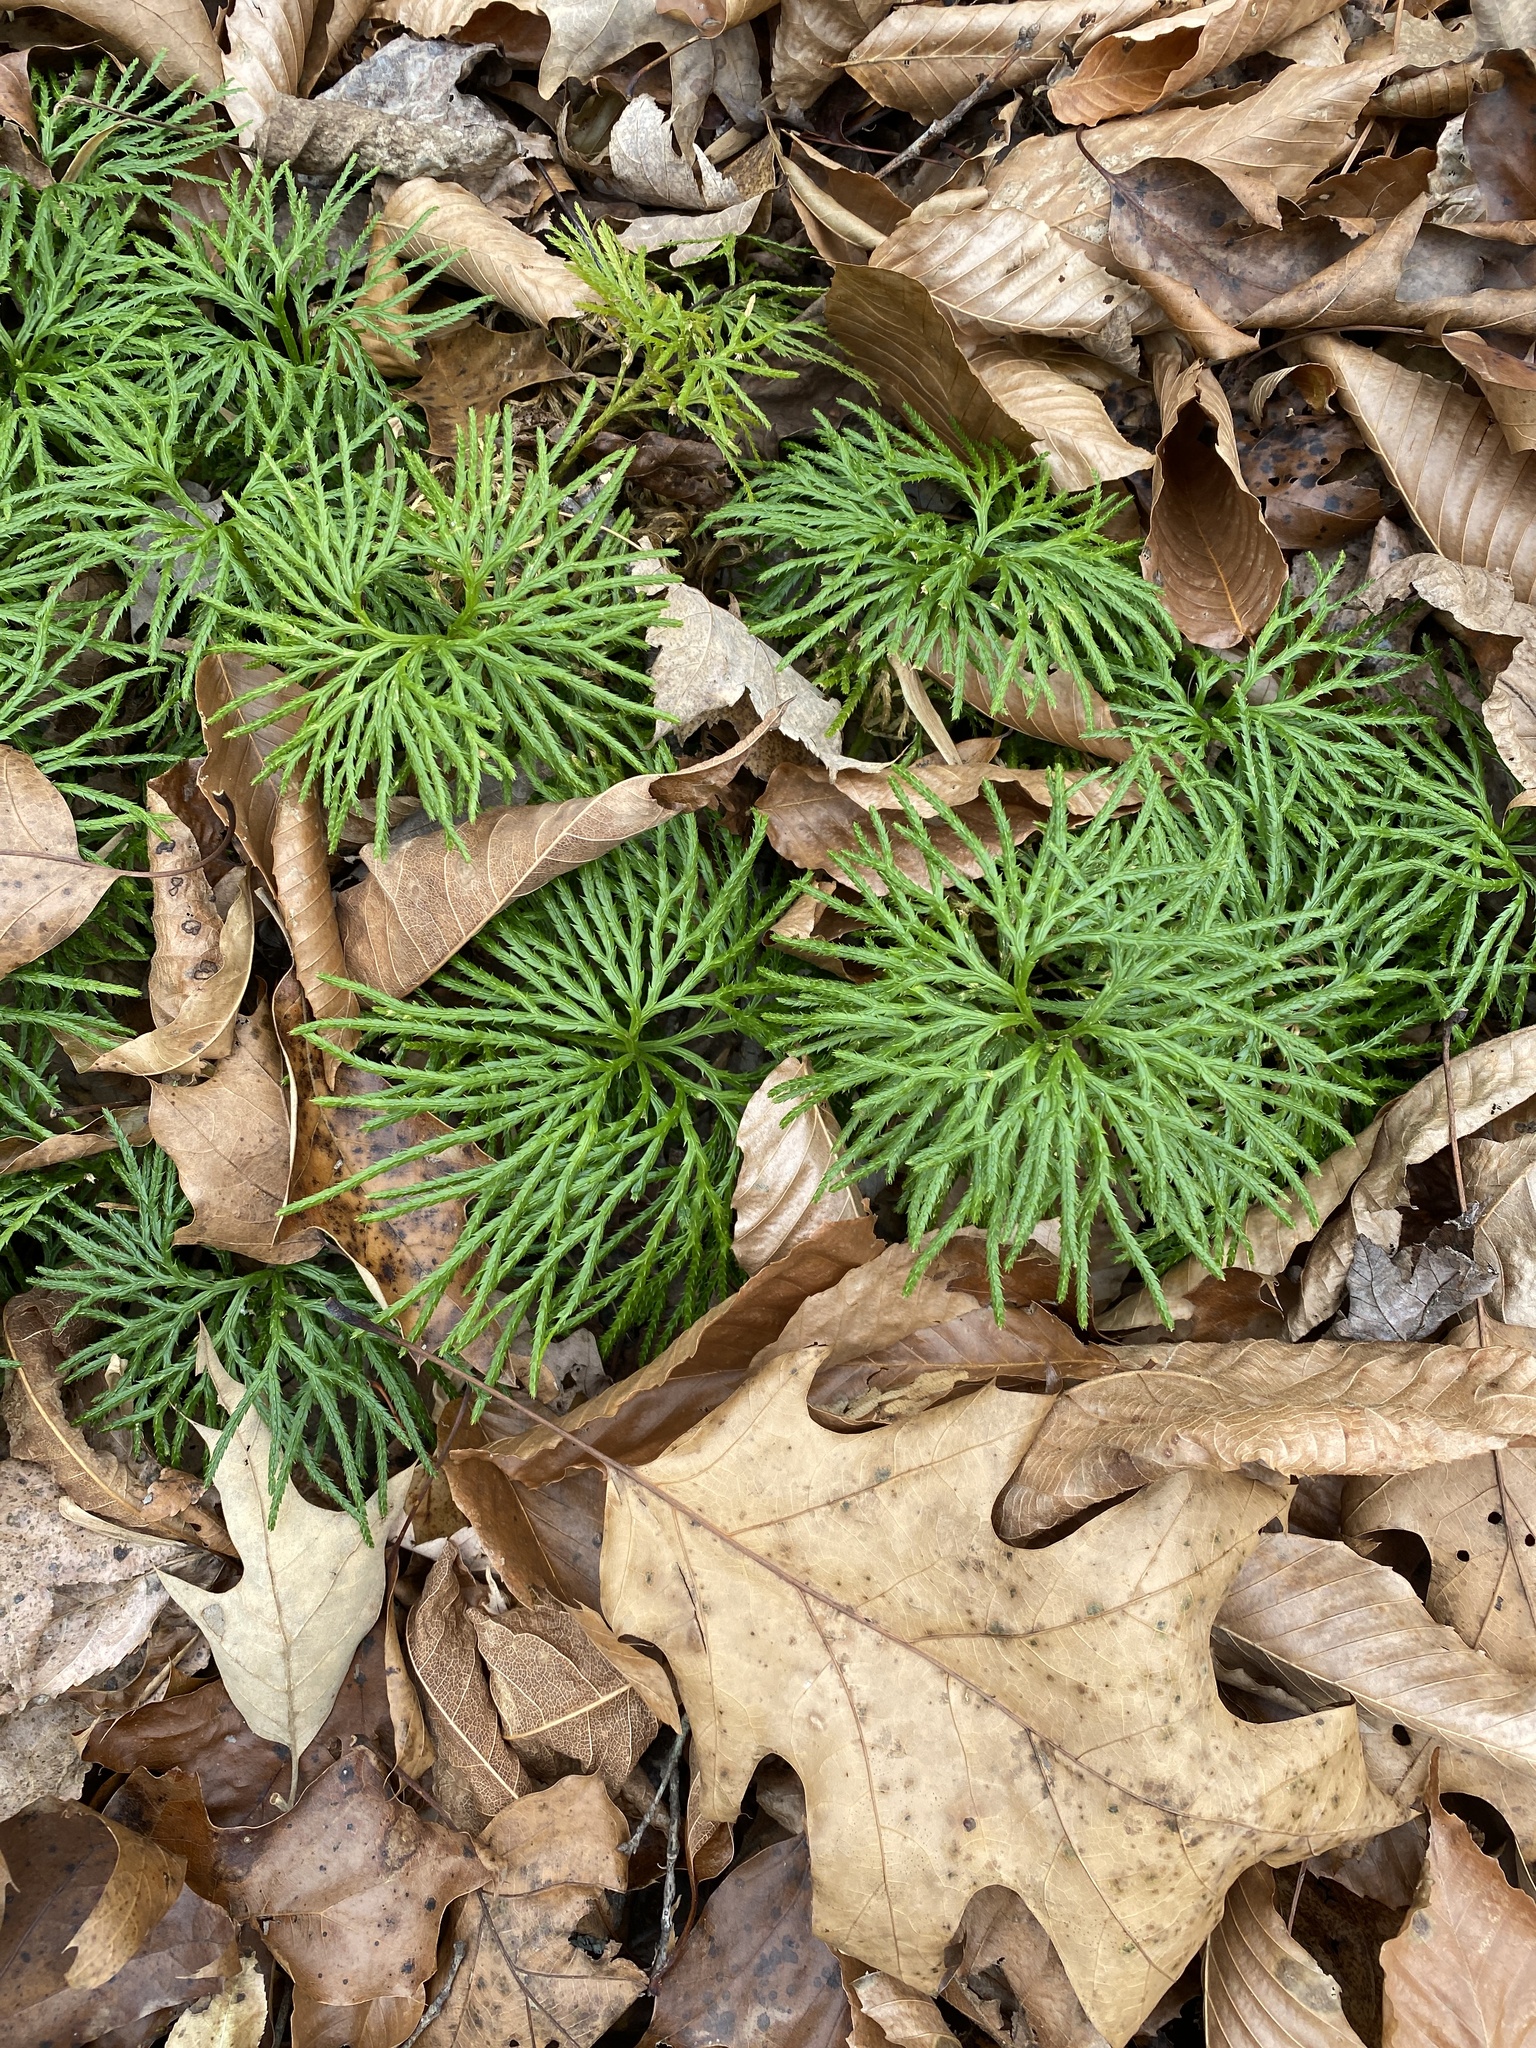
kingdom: Plantae
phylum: Tracheophyta
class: Lycopodiopsida
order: Lycopodiales
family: Lycopodiaceae
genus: Diphasiastrum
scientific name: Diphasiastrum digitatum
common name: Southern running-pine
